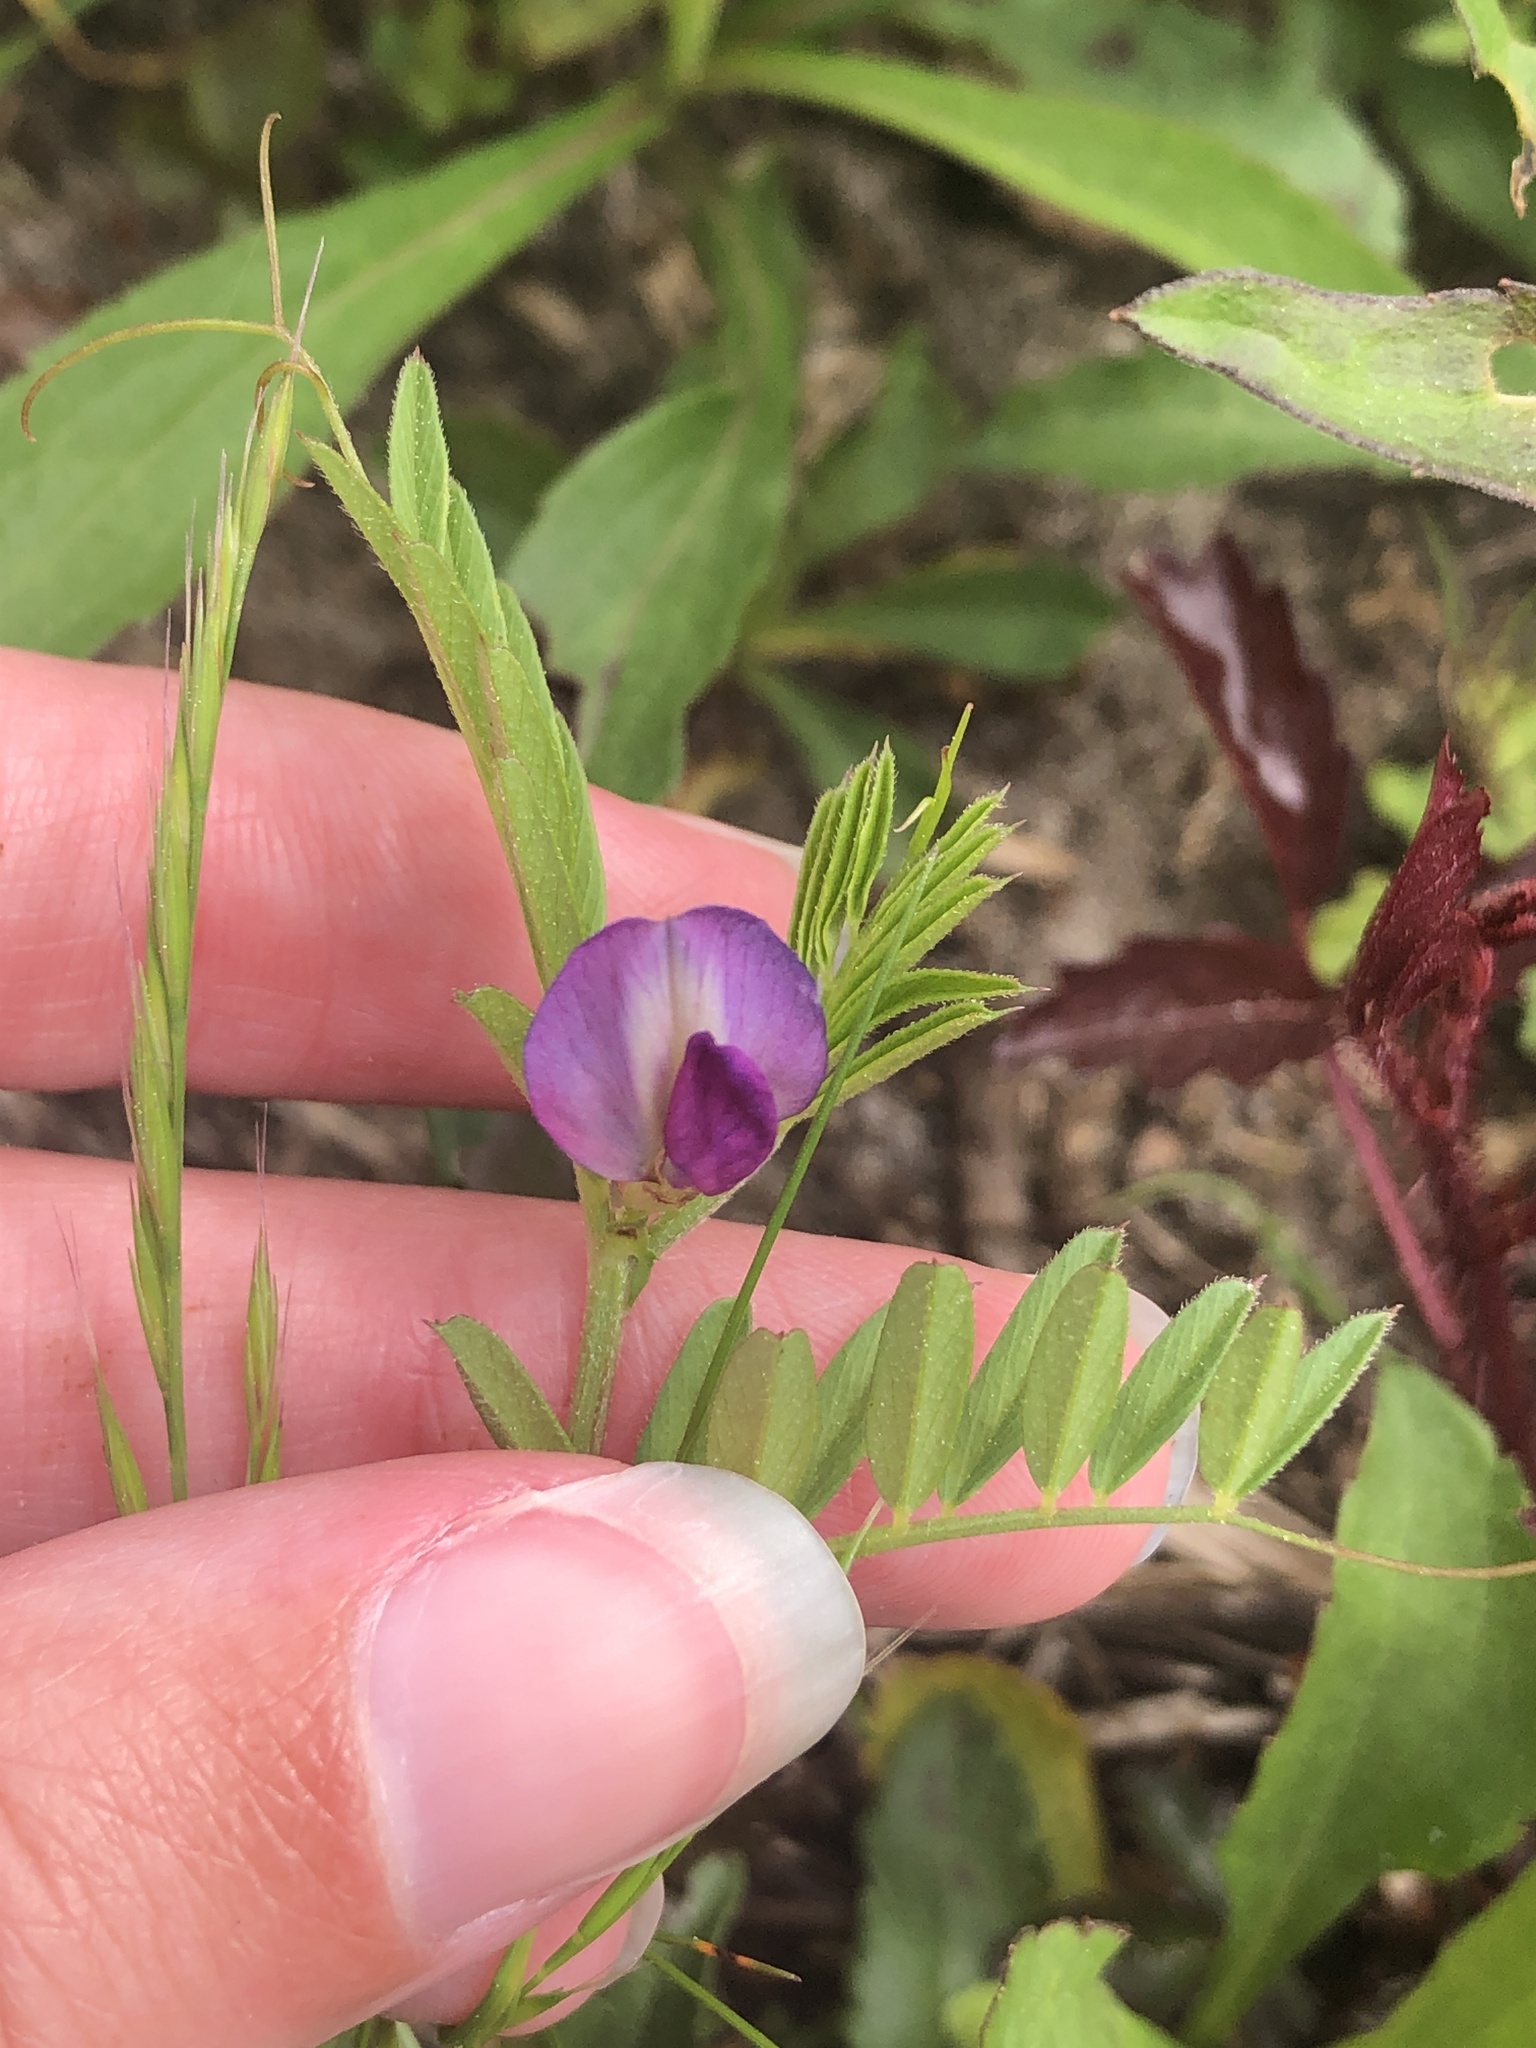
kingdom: Plantae
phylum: Tracheophyta
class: Magnoliopsida
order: Fabales
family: Fabaceae
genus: Vicia
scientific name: Vicia sativa
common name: Garden vetch
